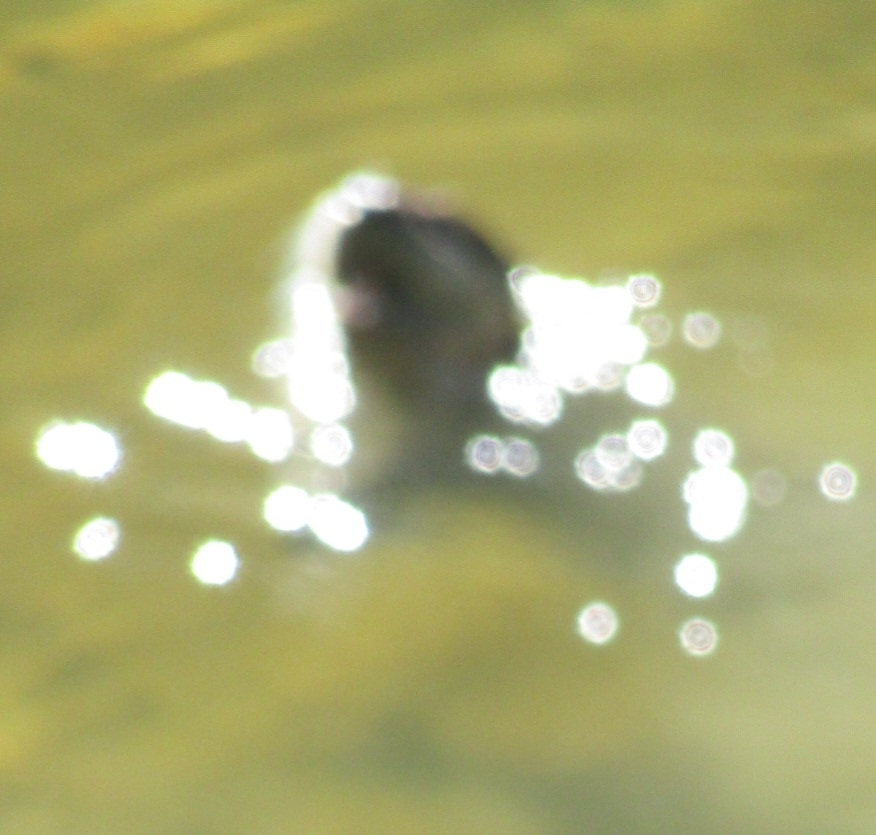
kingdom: Animalia
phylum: Chordata
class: Mammalia
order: Carnivora
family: Mustelidae
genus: Lontra
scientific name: Lontra canadensis
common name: North american river otter
